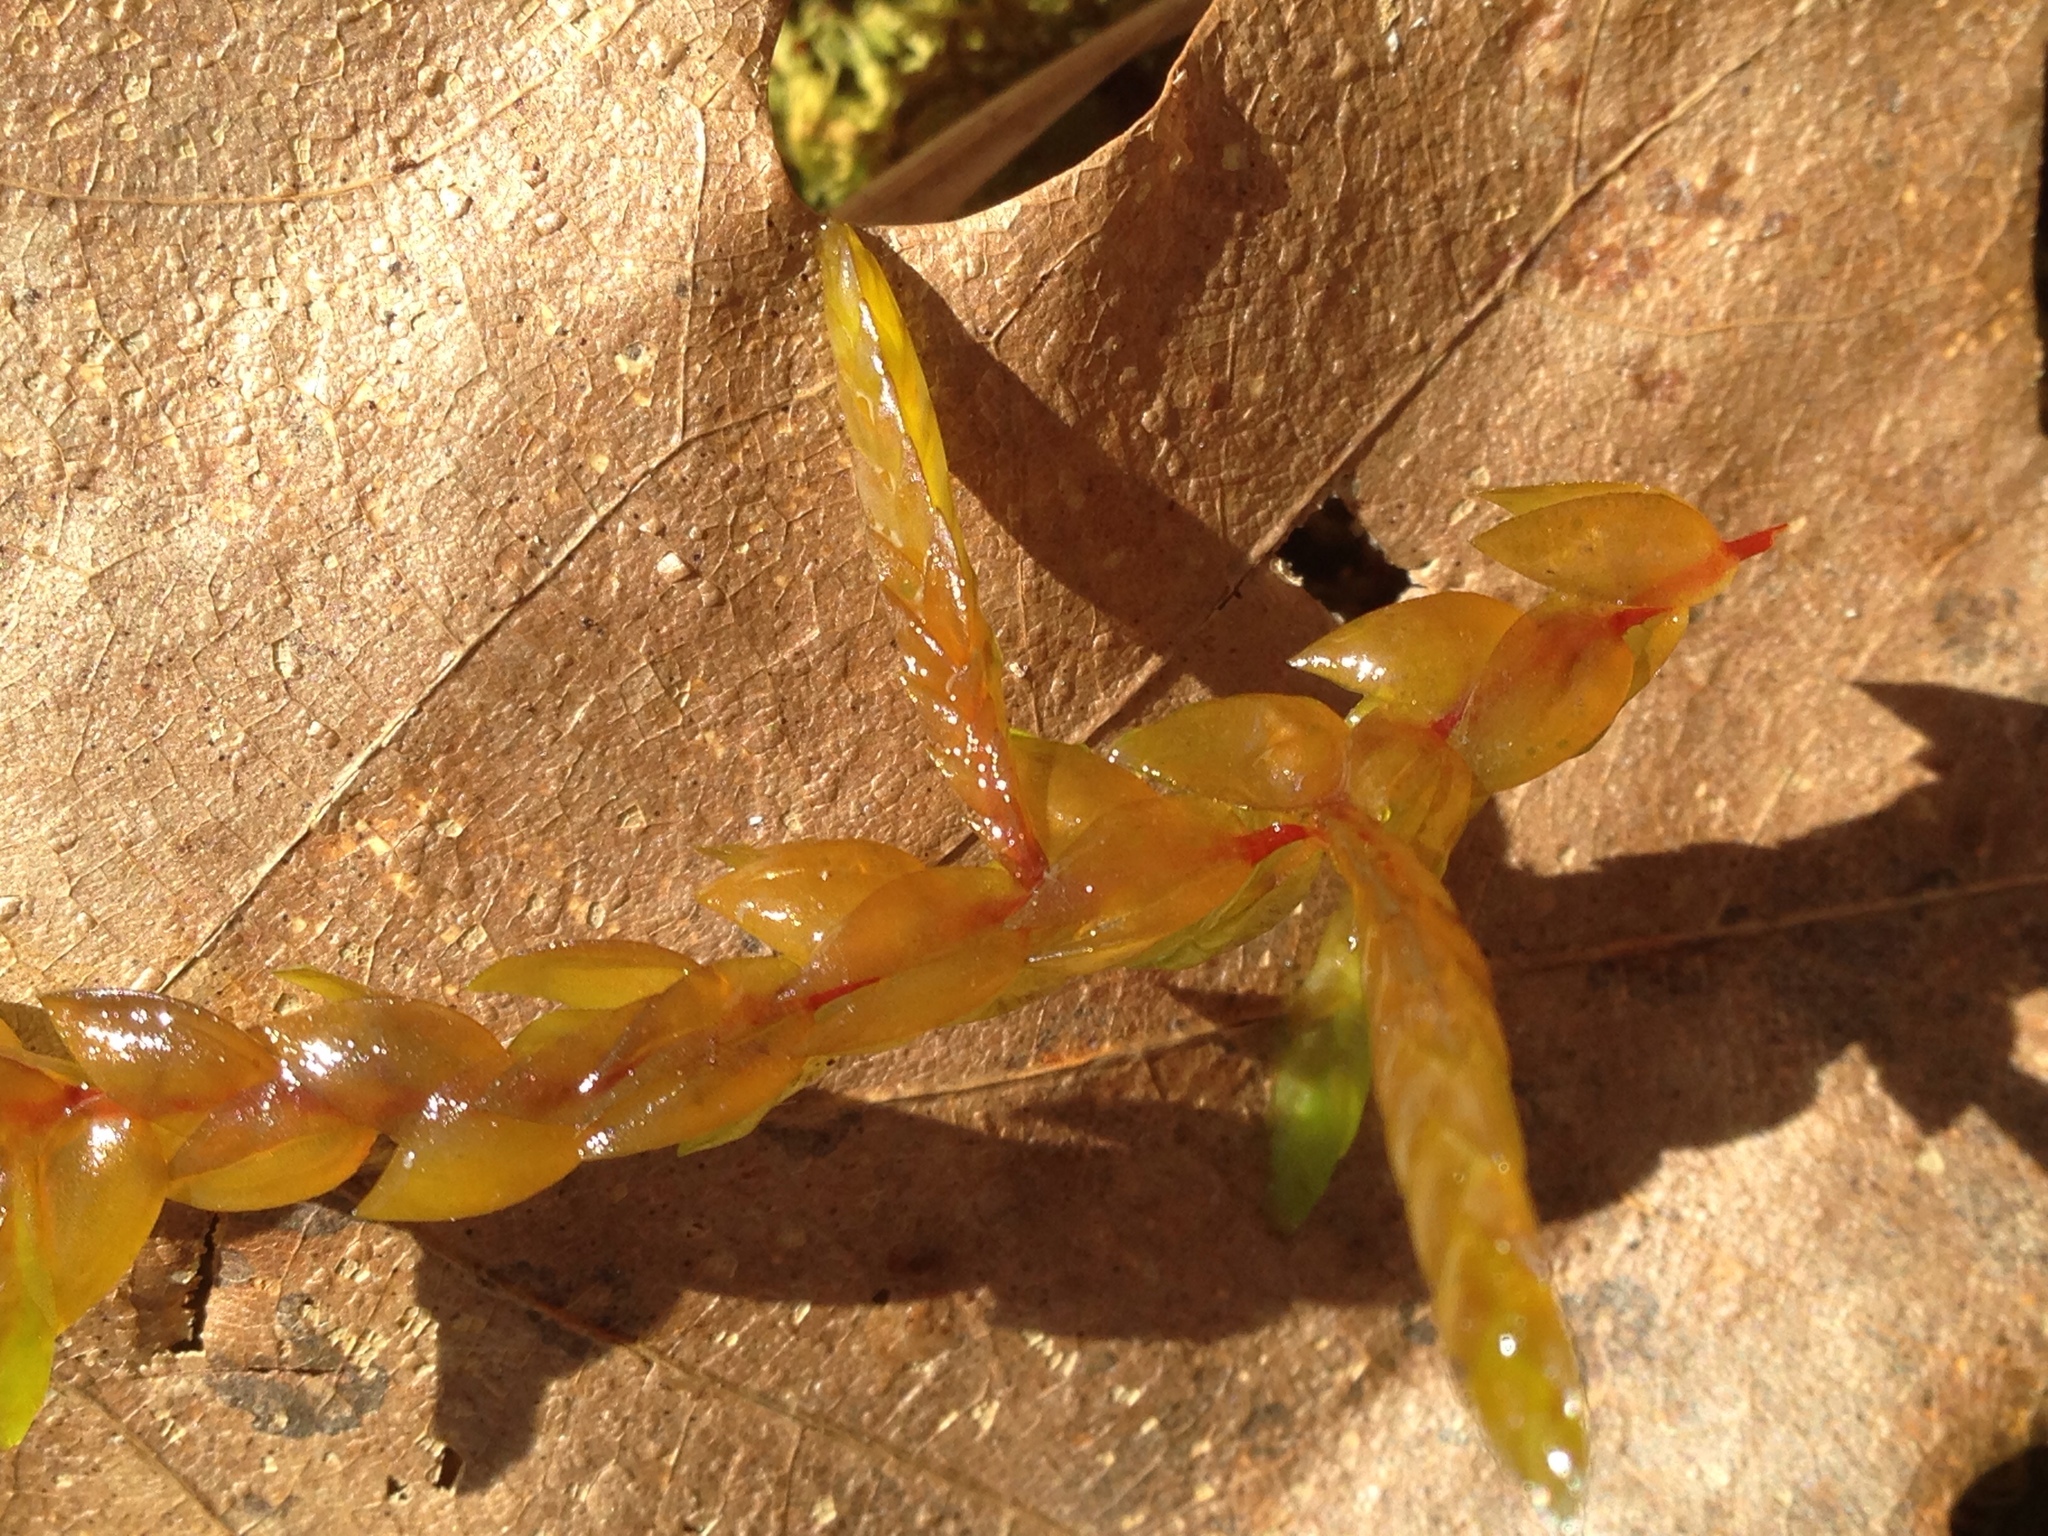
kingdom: Plantae
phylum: Bryophyta
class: Bryopsida
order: Hypnales
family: Fontinalaceae
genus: Fontinalis
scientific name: Fontinalis antipyretica
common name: Greater water-moss
